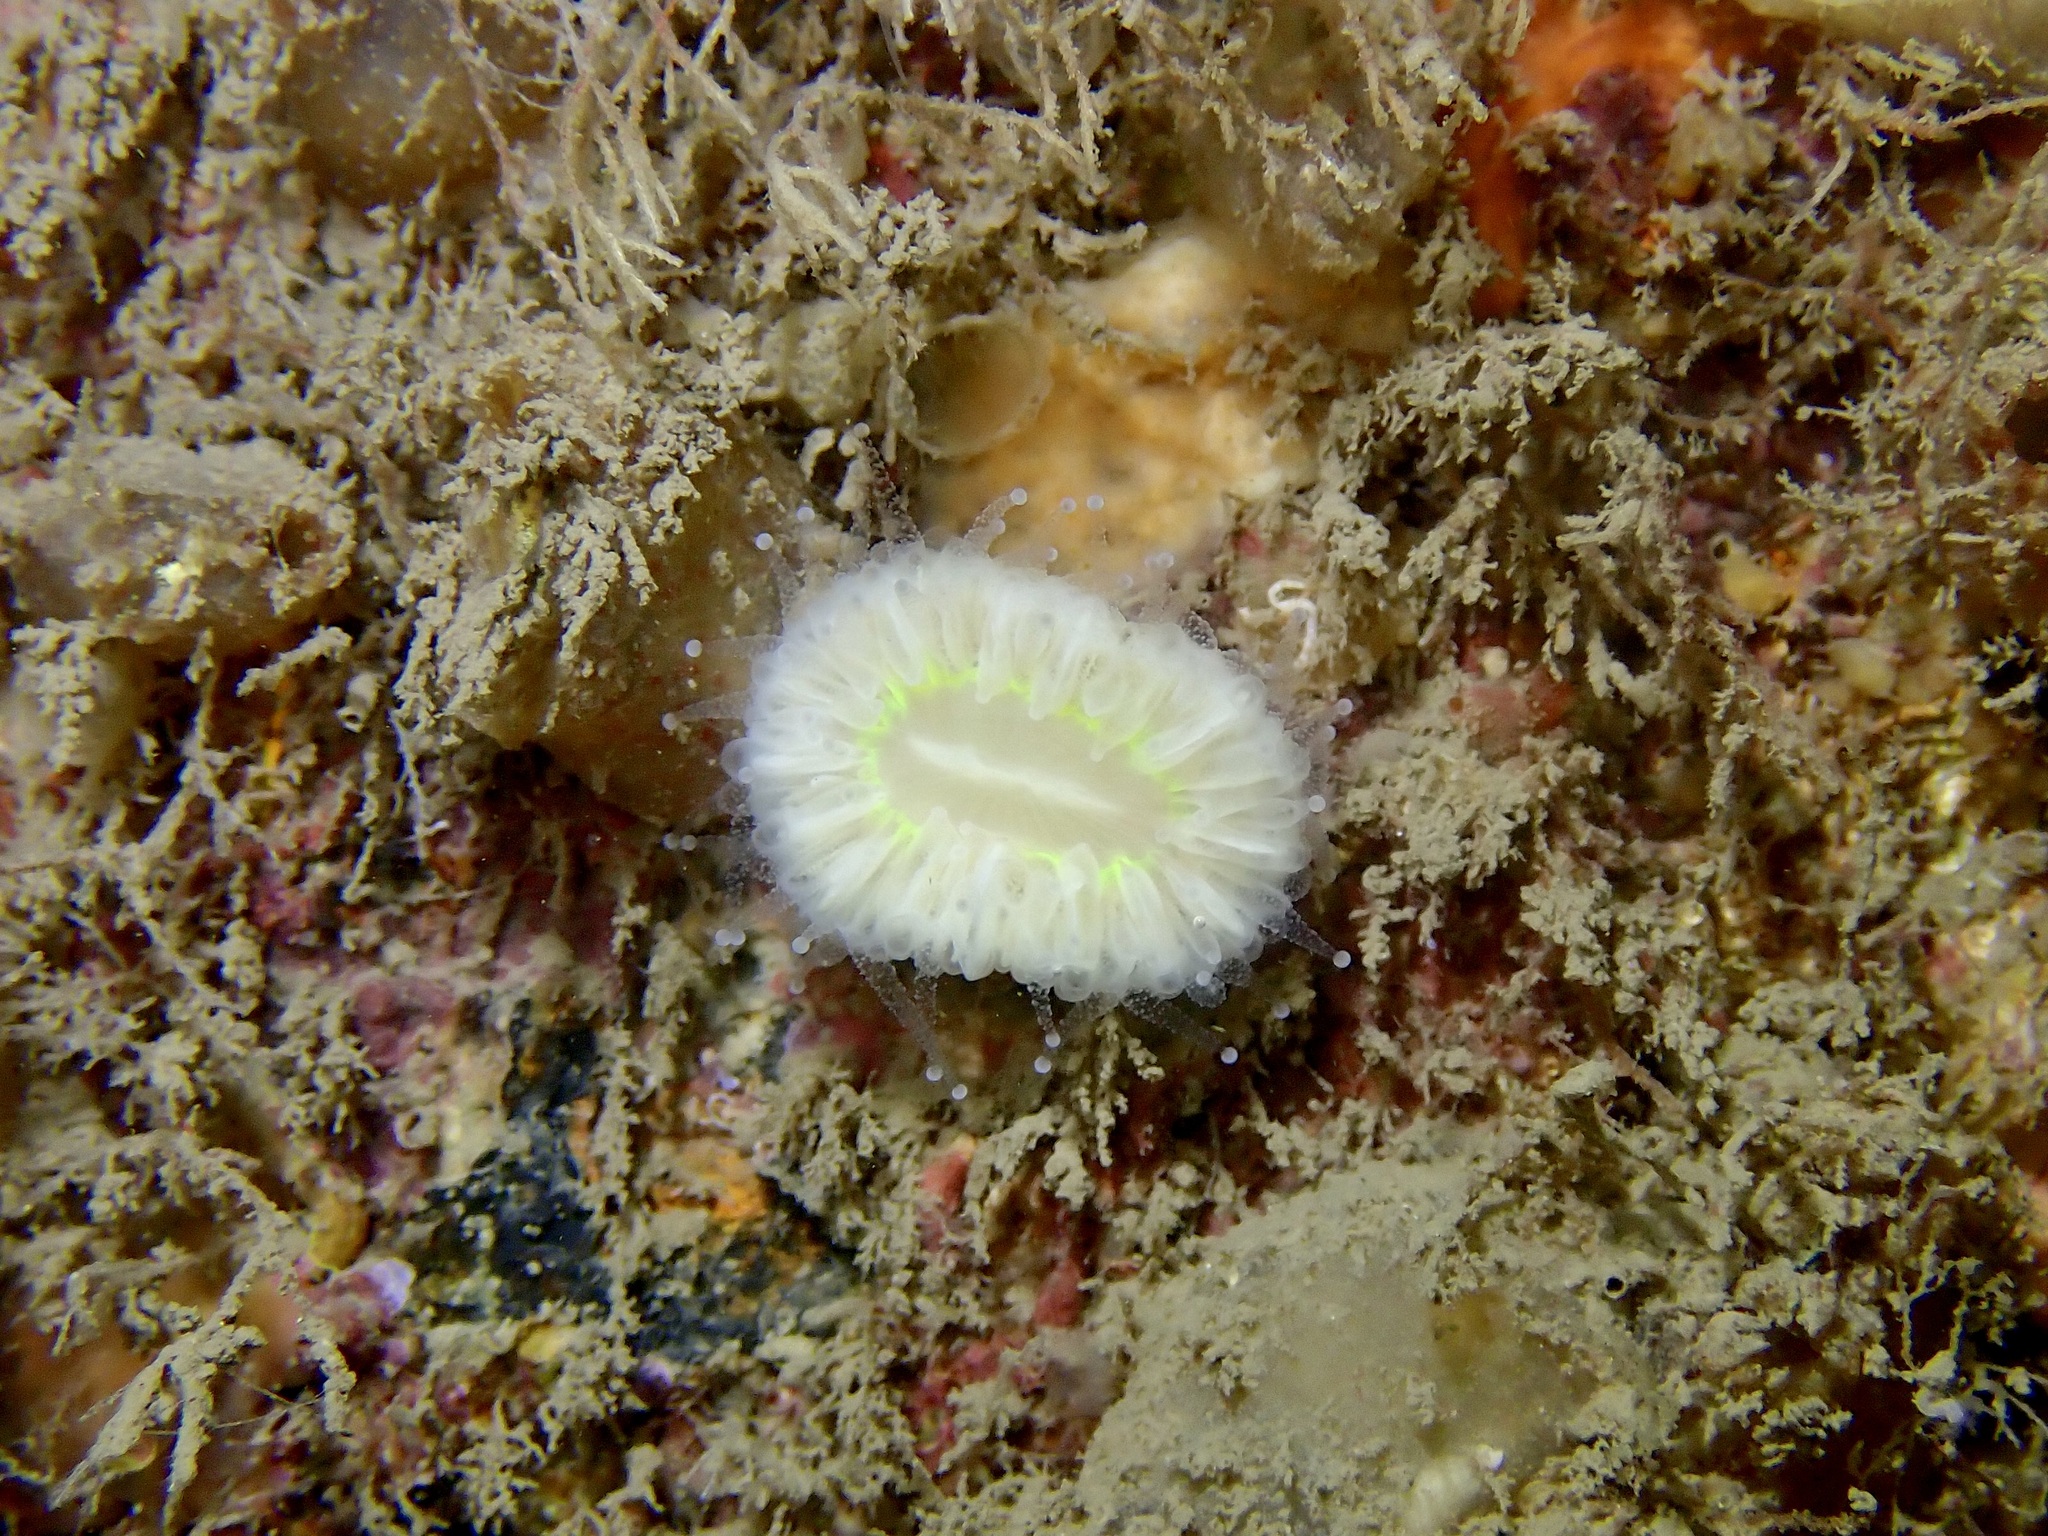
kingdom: Animalia
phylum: Cnidaria
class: Anthozoa
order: Scleractinia
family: Caryophylliidae
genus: Caryophyllia
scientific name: Caryophyllia smithii
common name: Devonshire cup coral
